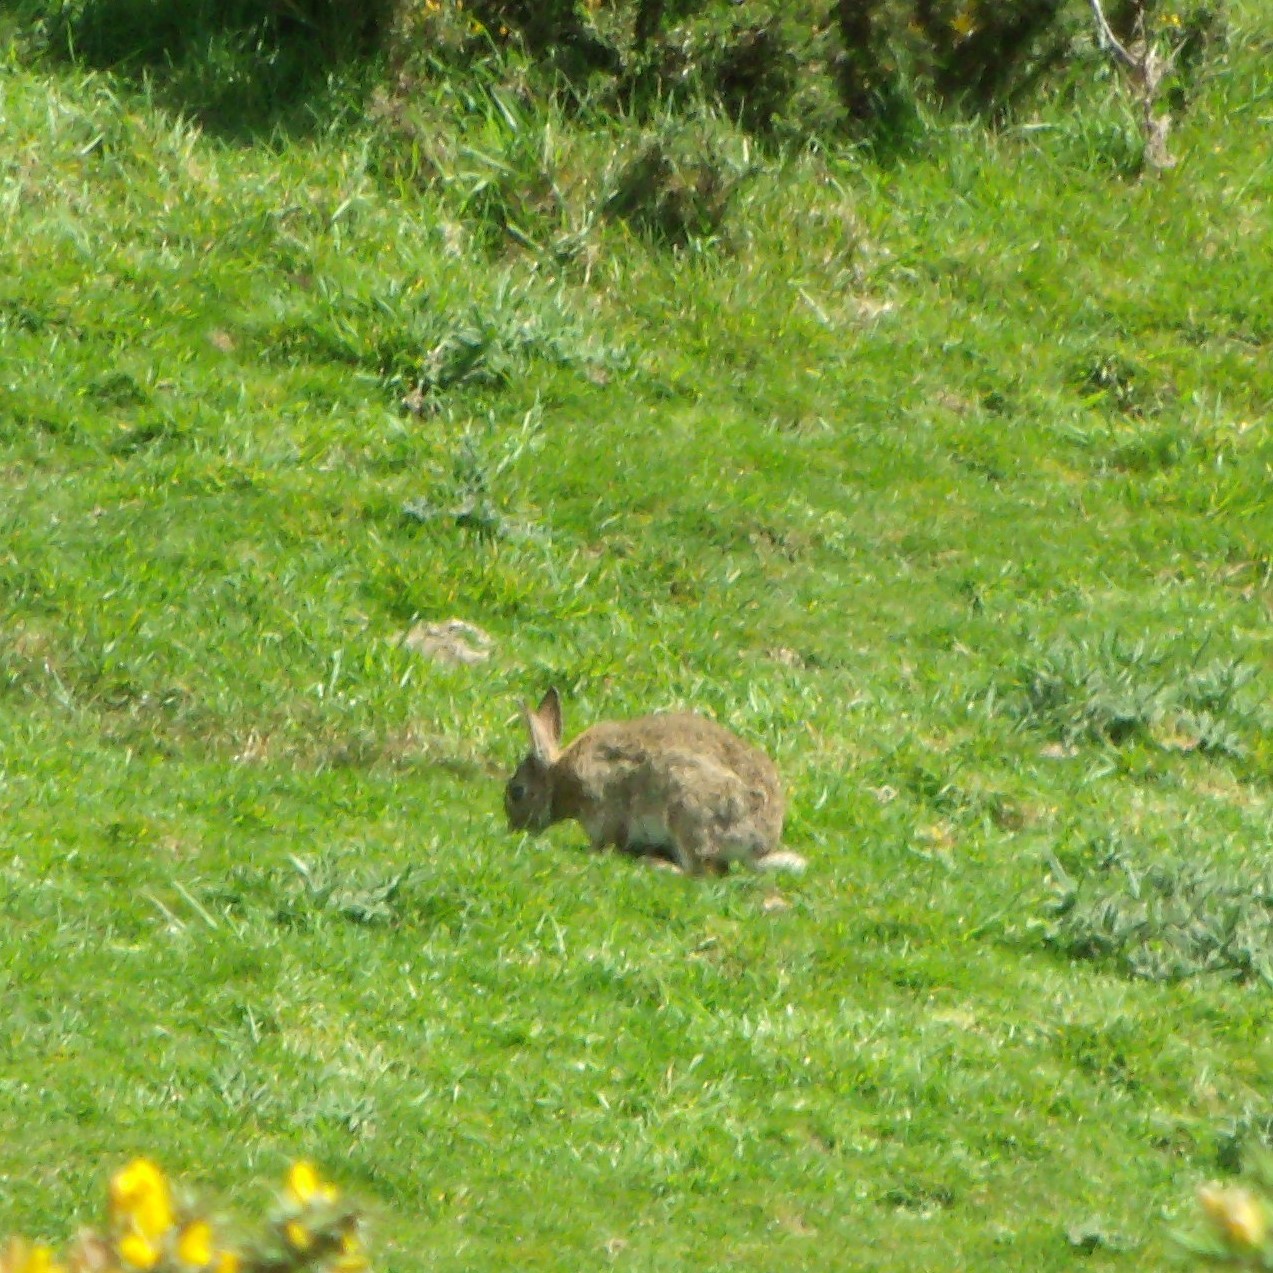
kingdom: Animalia
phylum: Chordata
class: Mammalia
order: Lagomorpha
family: Leporidae
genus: Oryctolagus
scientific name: Oryctolagus cuniculus
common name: European rabbit
